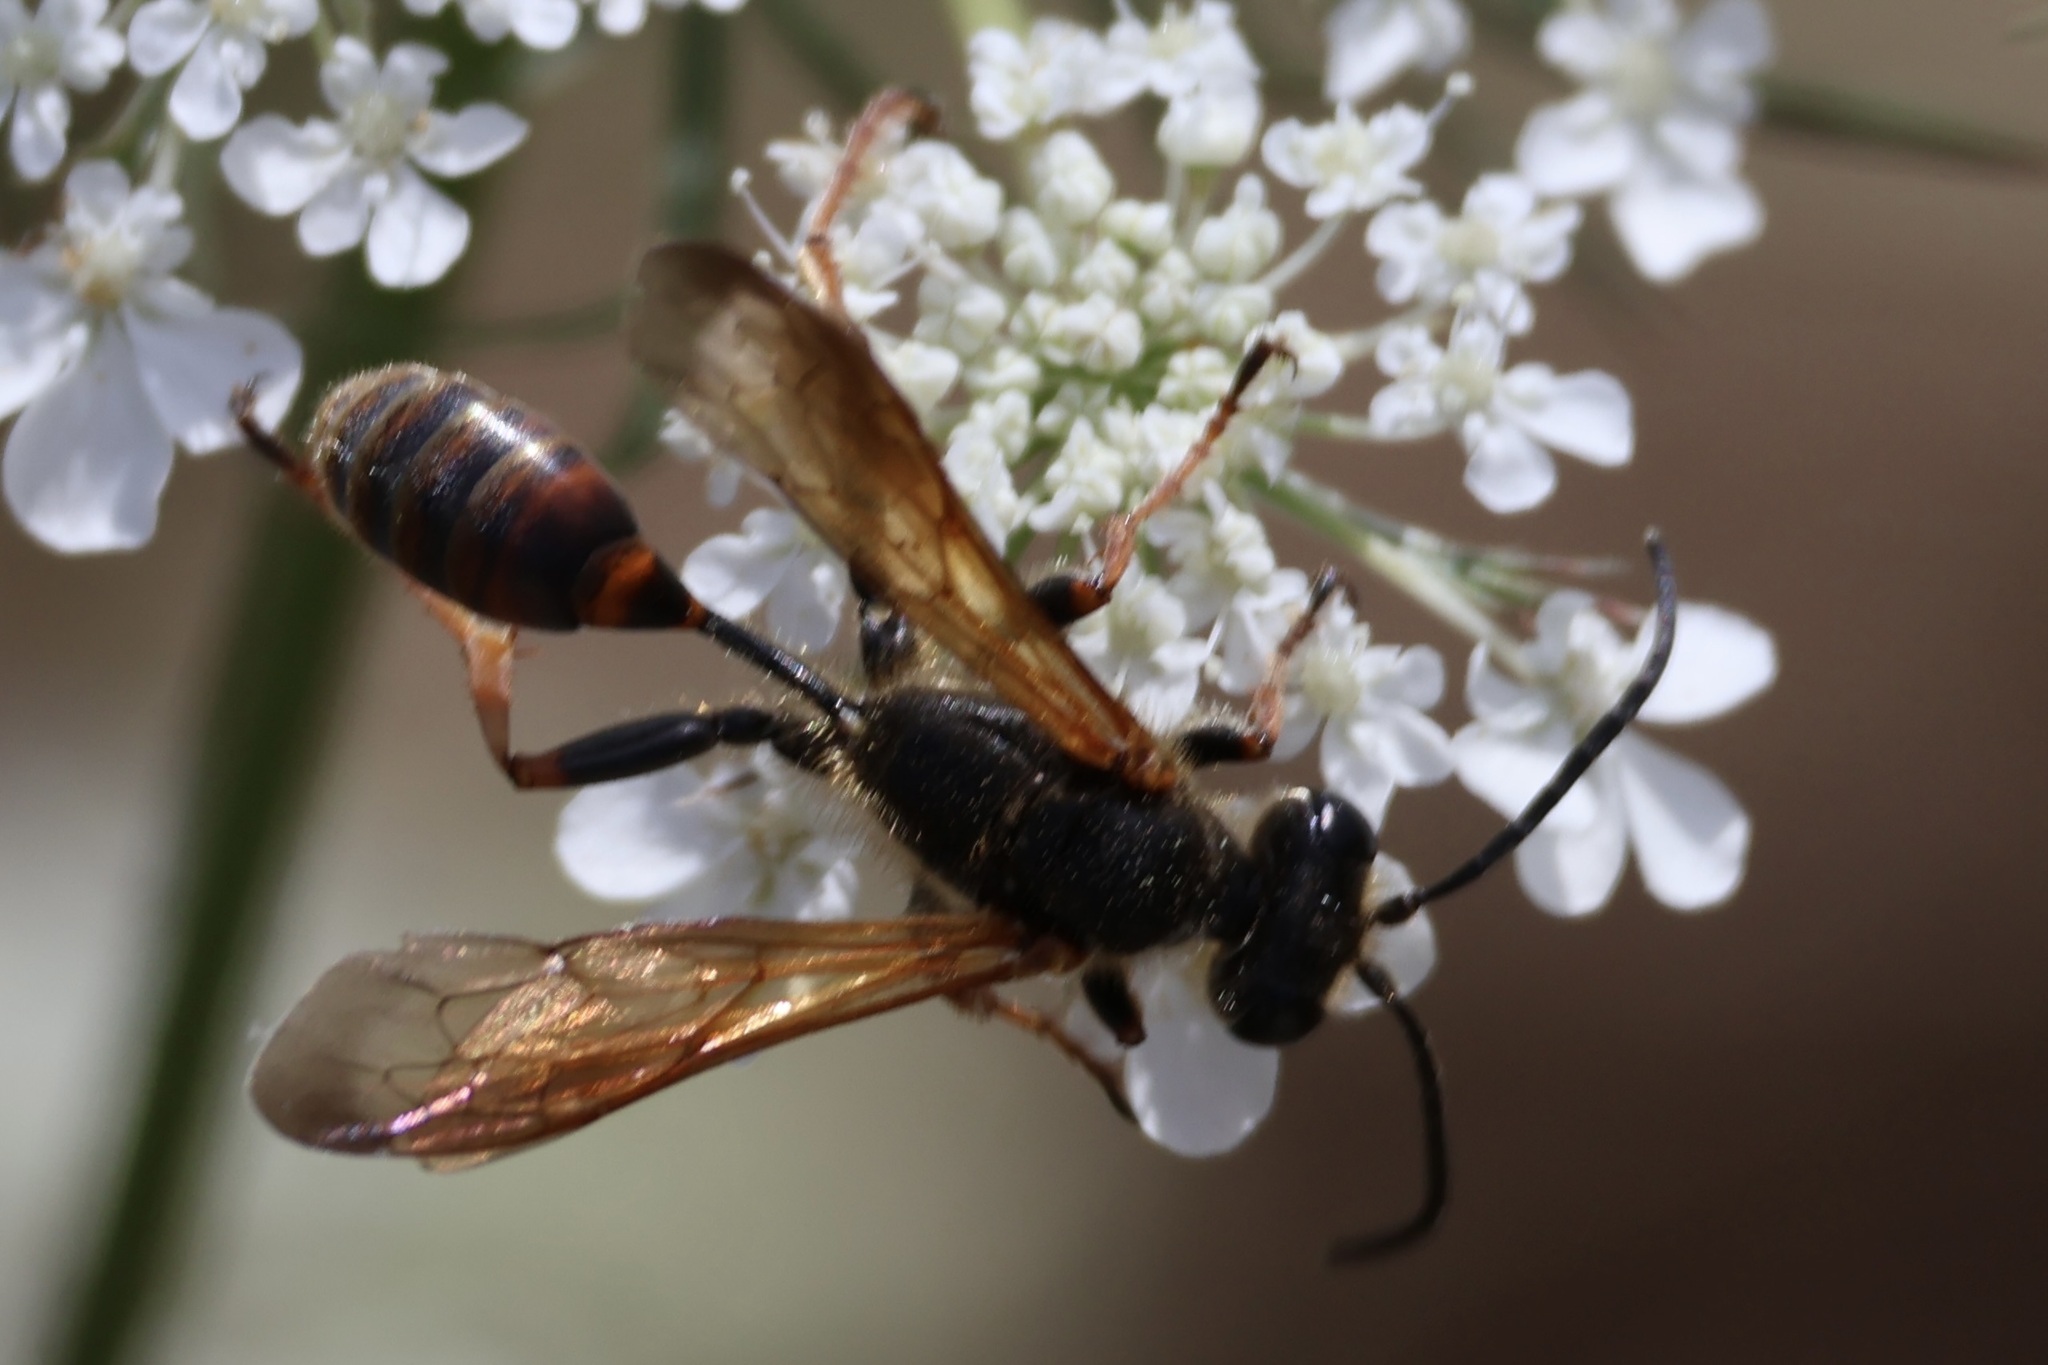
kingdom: Animalia
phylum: Arthropoda
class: Insecta
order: Hymenoptera
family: Sphecidae
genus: Isodontia
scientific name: Isodontia elegans
